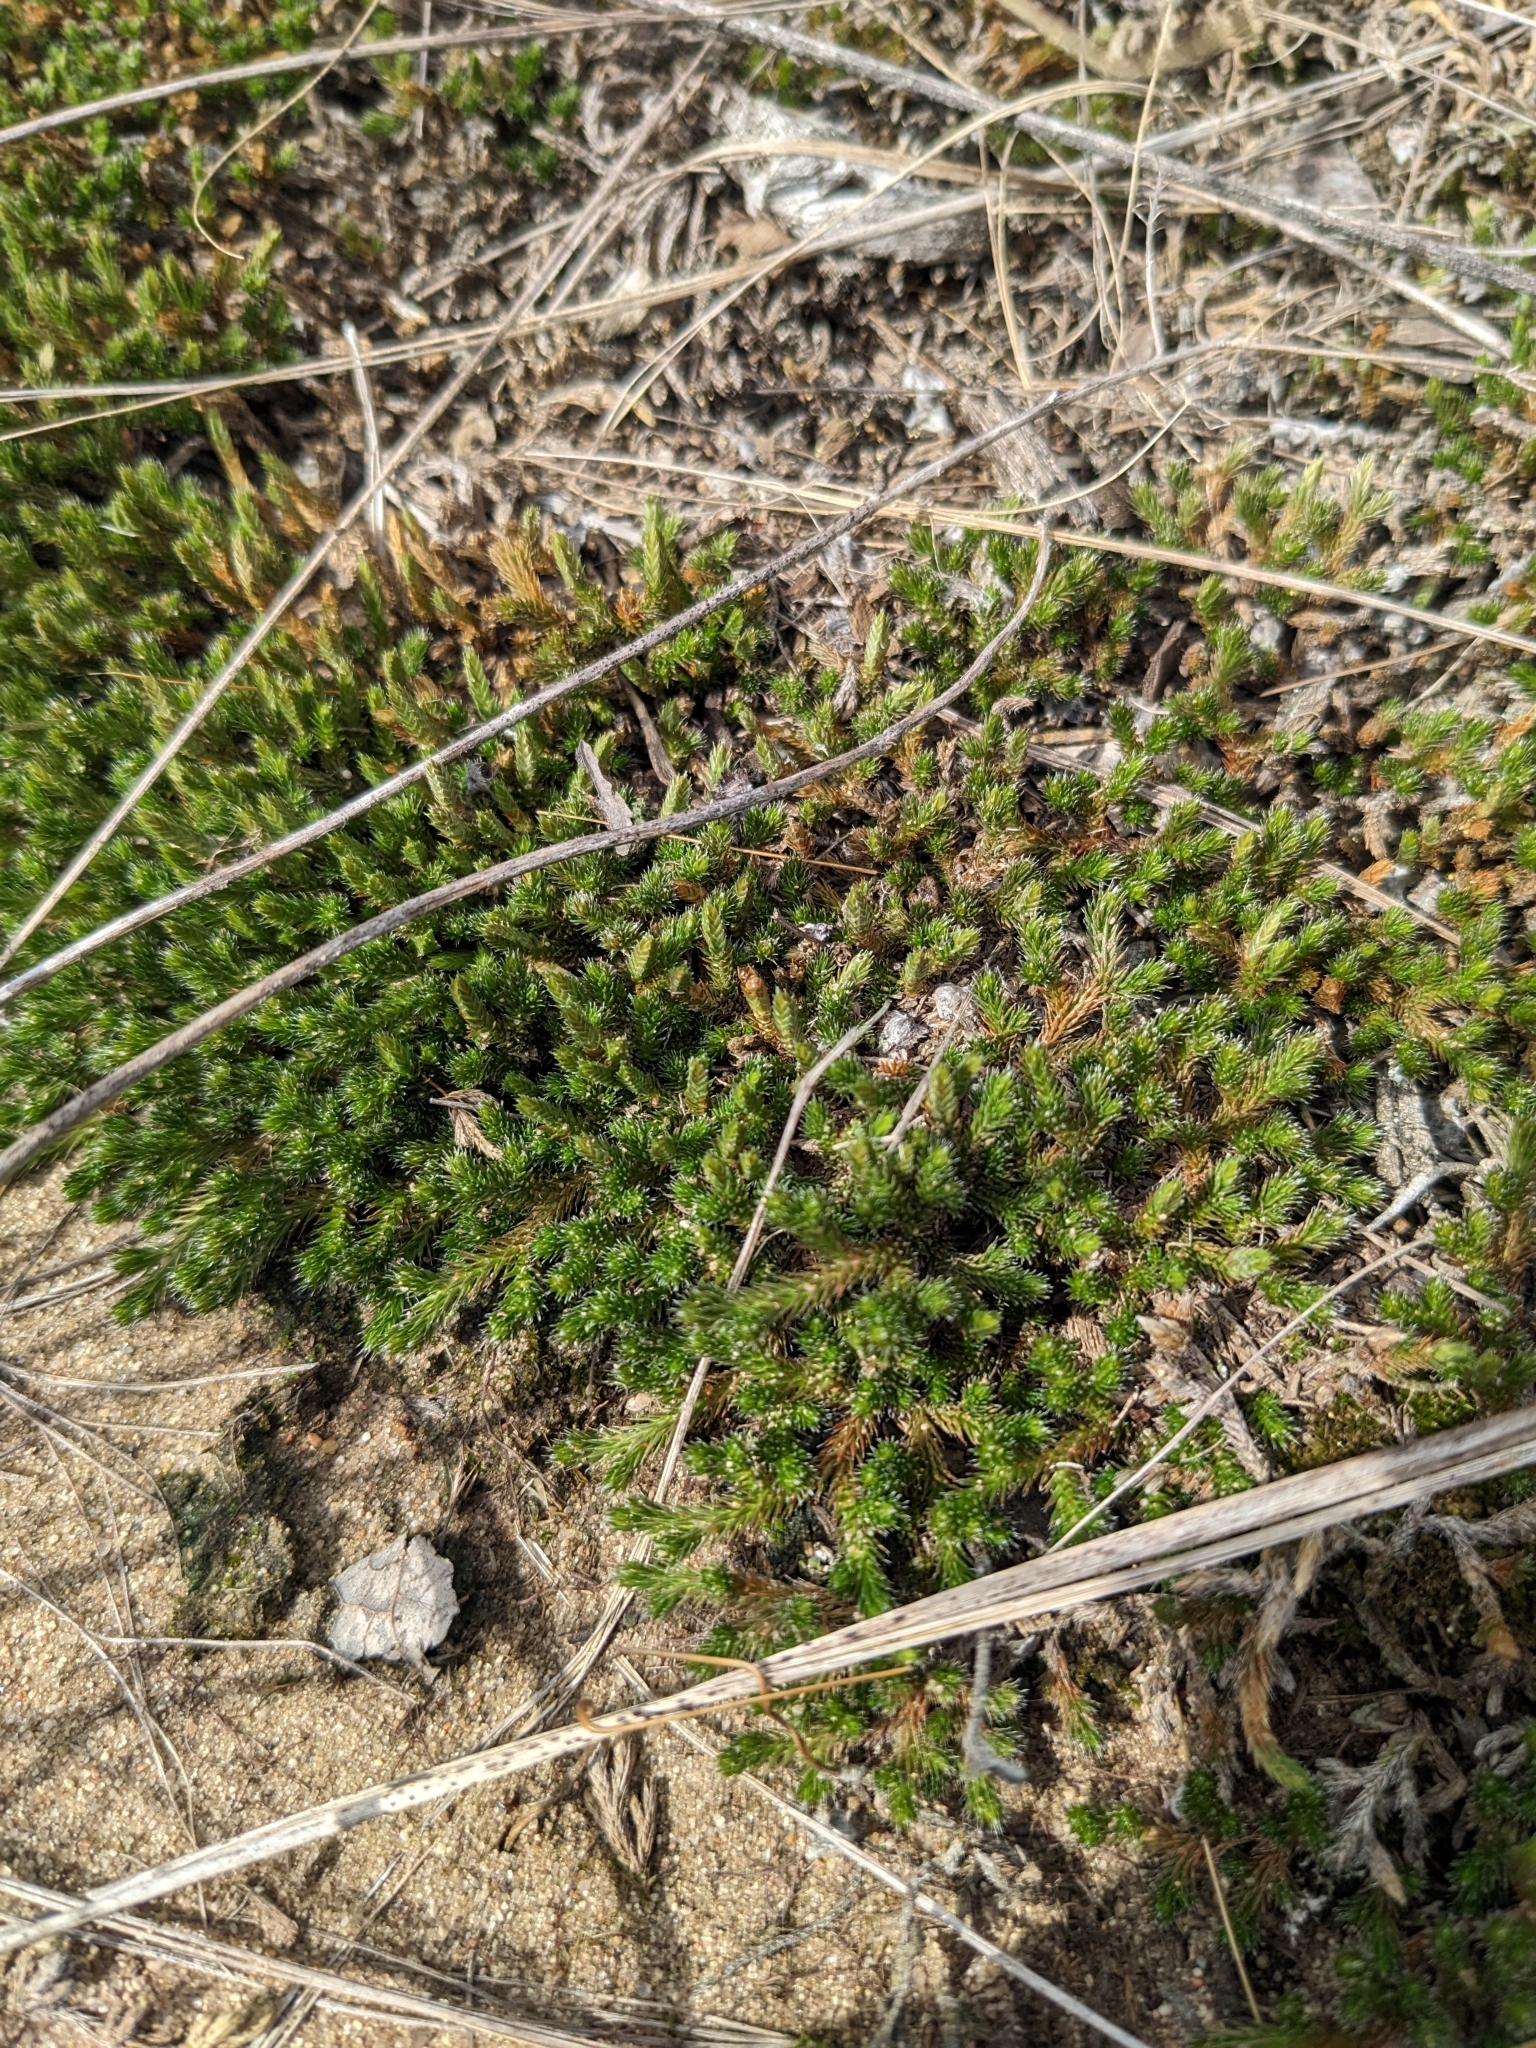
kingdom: Plantae
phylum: Tracheophyta
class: Lycopodiopsida
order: Selaginellales
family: Selaginellaceae
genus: Selaginella
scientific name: Selaginella rupestris
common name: Dwarf spikemoss
